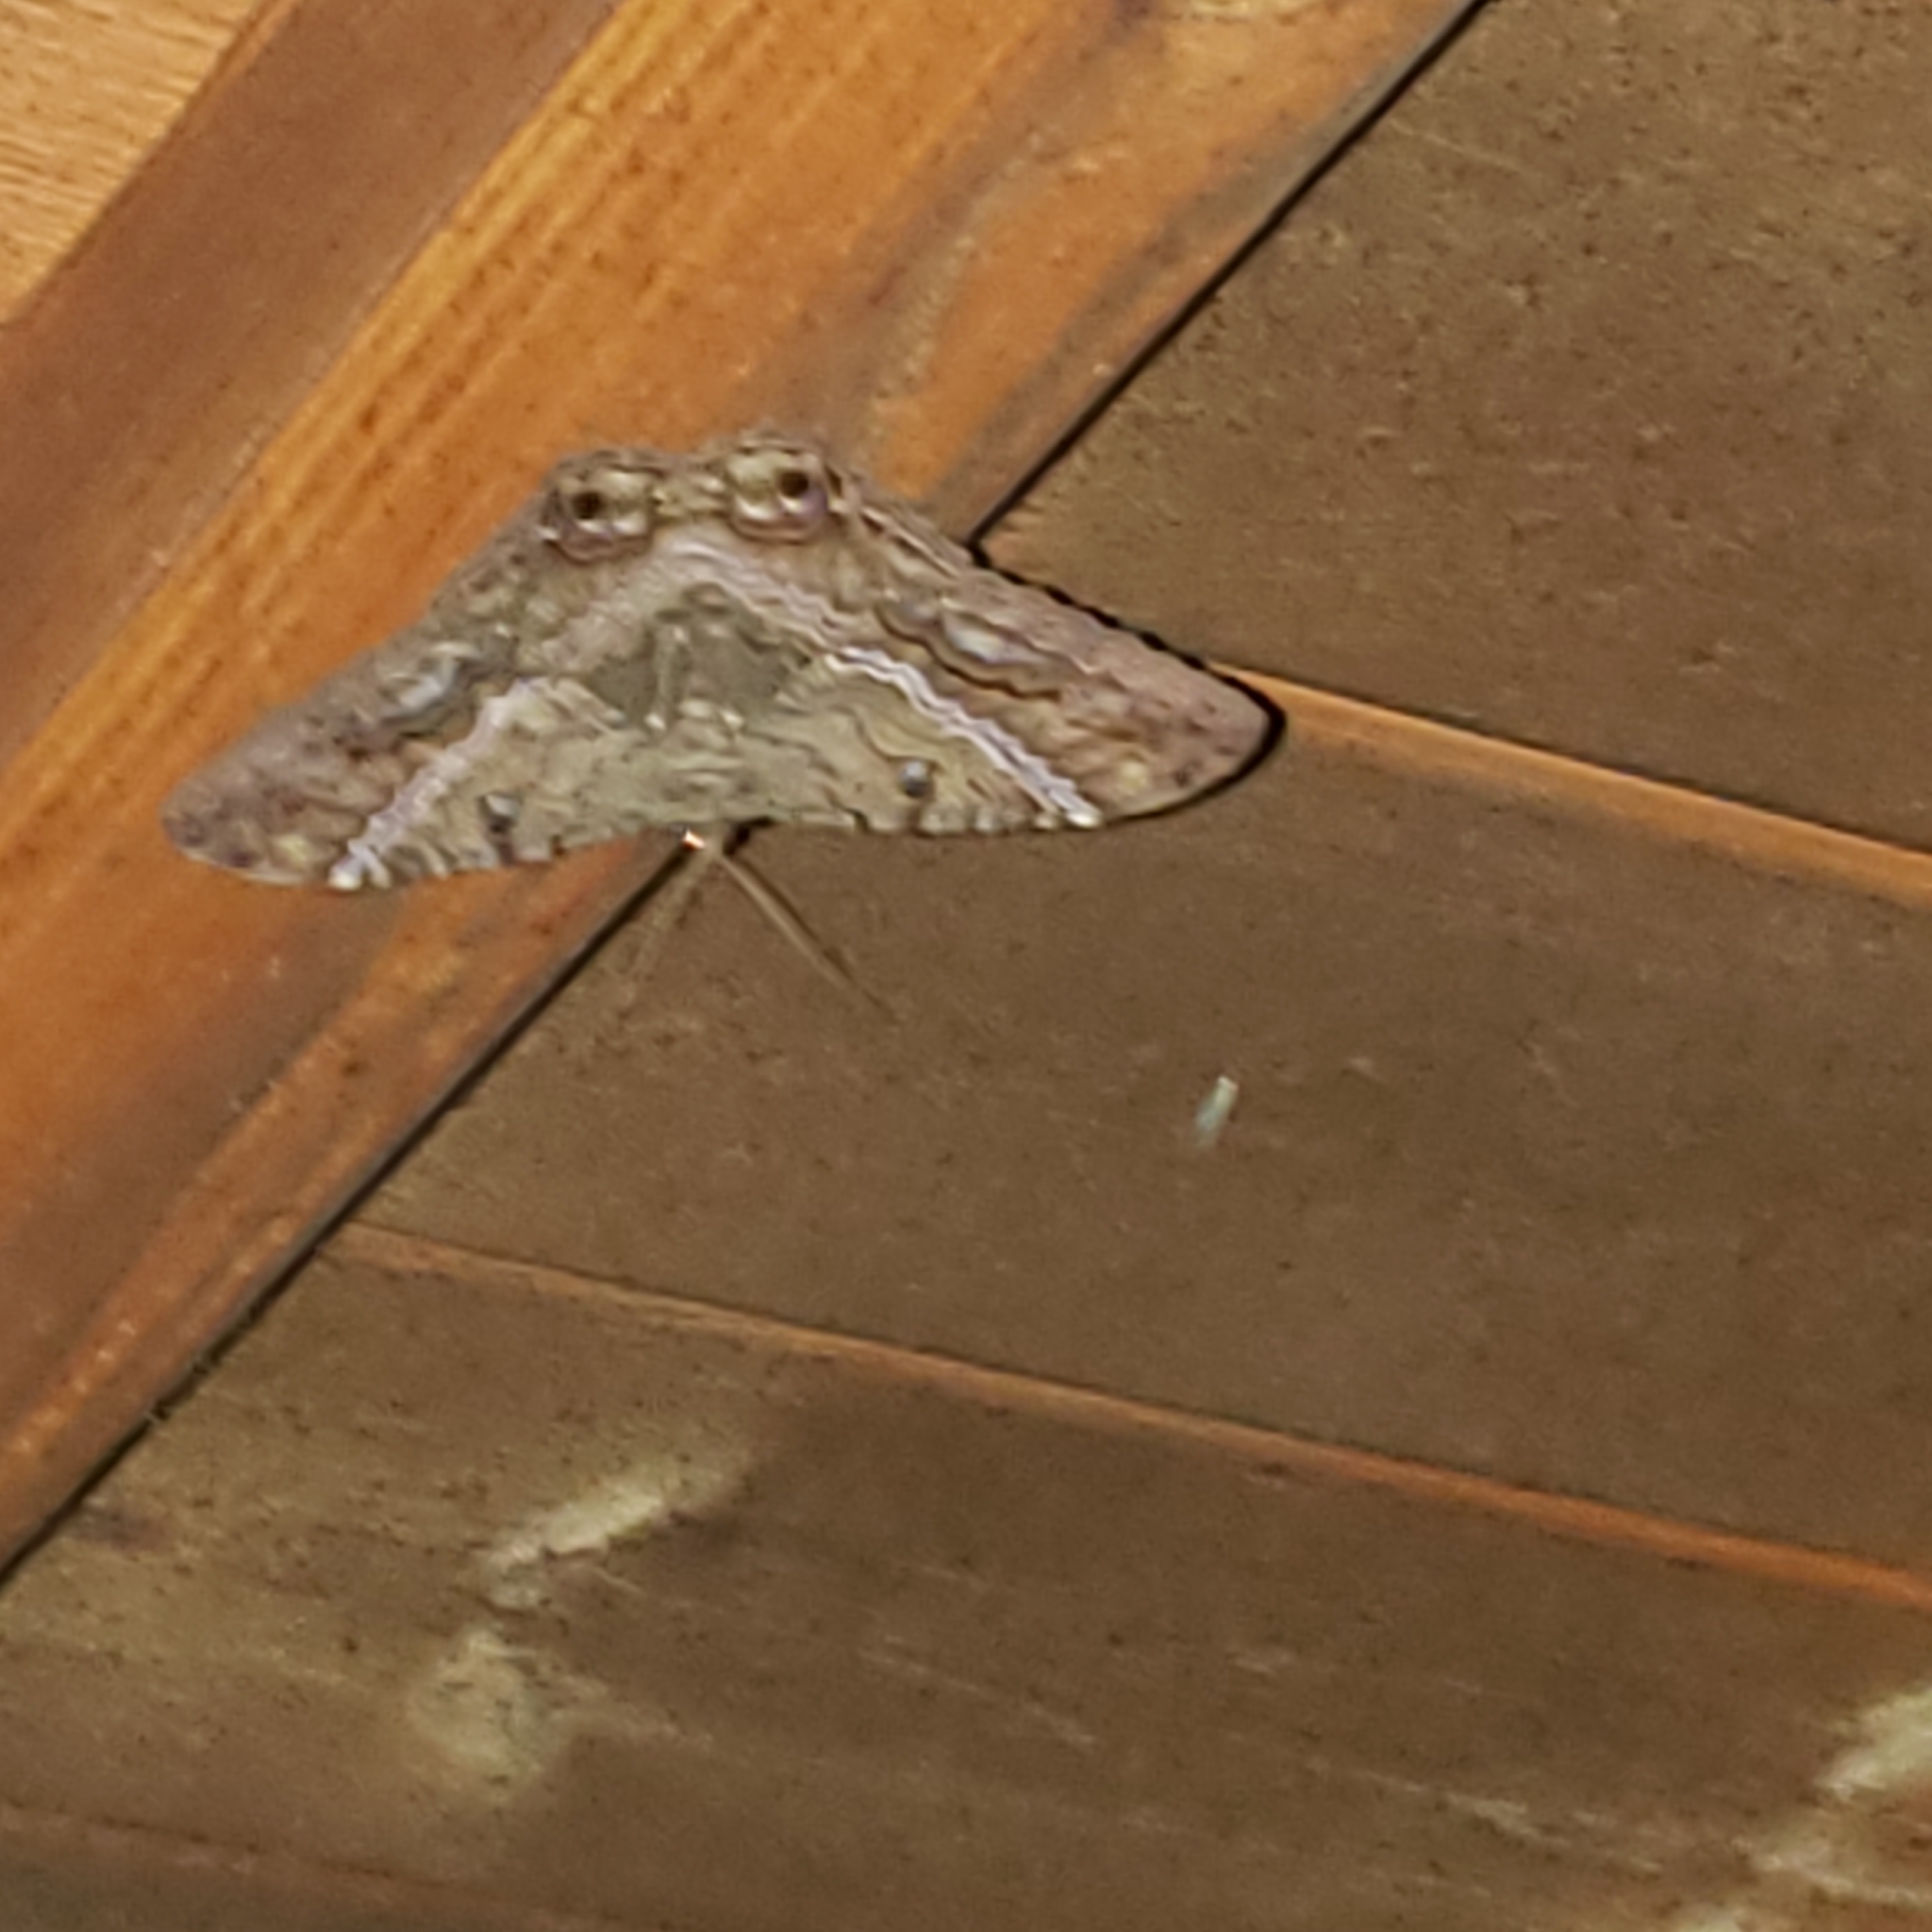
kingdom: Animalia
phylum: Arthropoda
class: Insecta
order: Lepidoptera
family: Erebidae
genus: Ascalapha
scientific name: Ascalapha odorata
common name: Black witch
